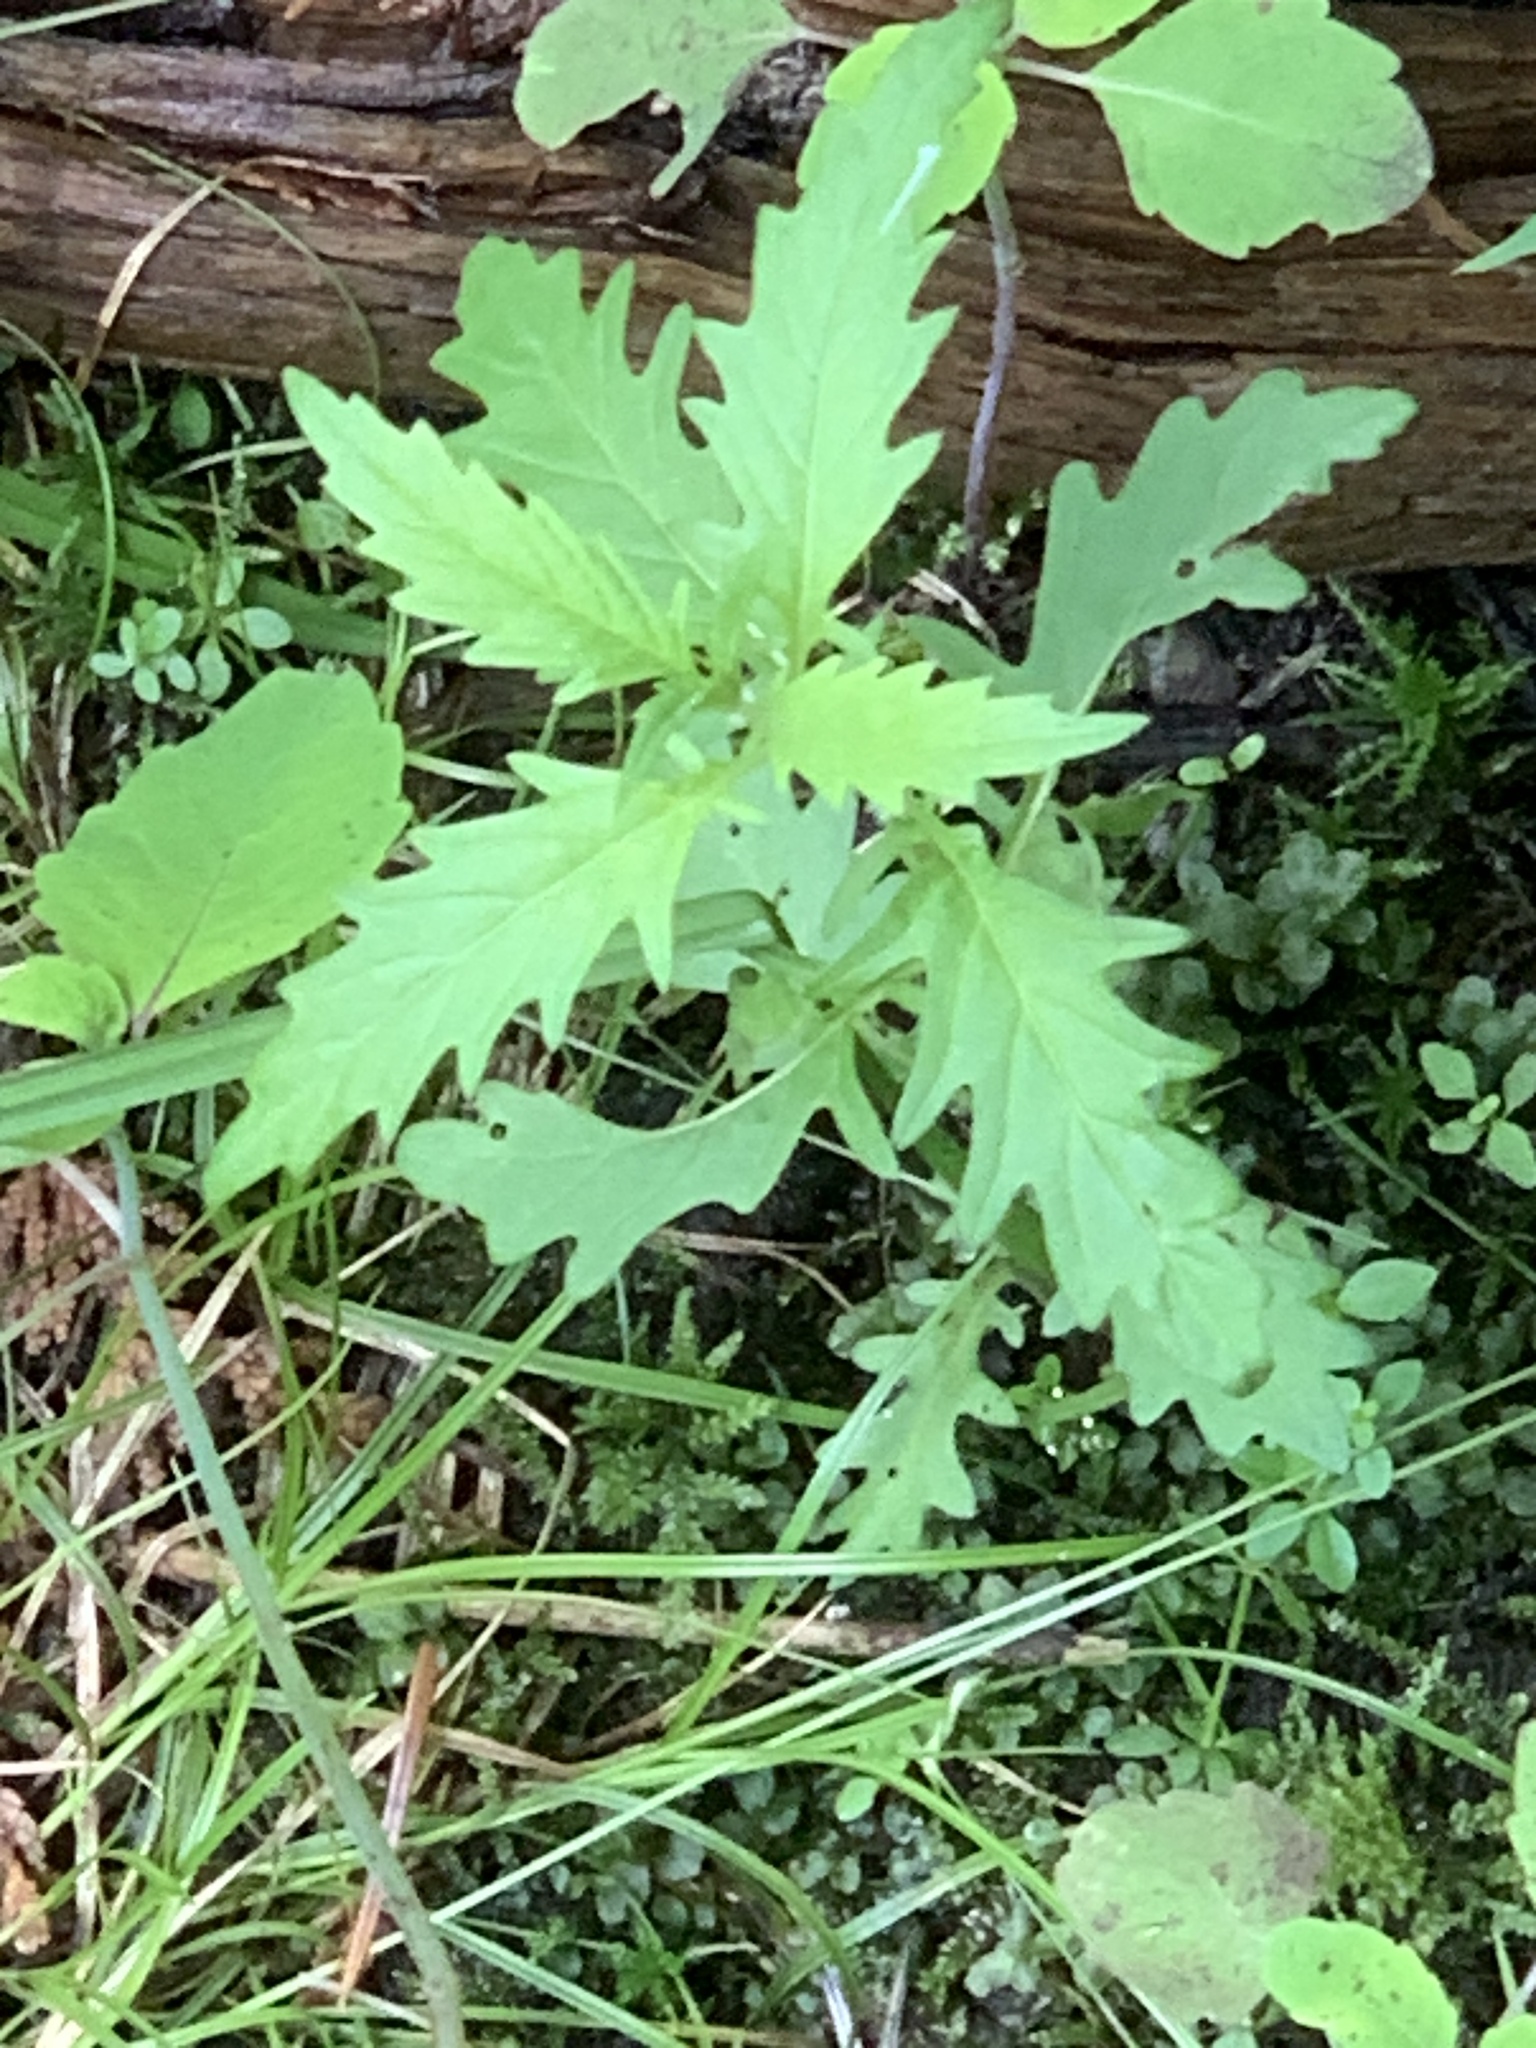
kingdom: Plantae
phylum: Tracheophyta
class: Magnoliopsida
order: Lamiales
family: Lamiaceae
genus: Lycopus
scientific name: Lycopus americanus
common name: American bugleweed
